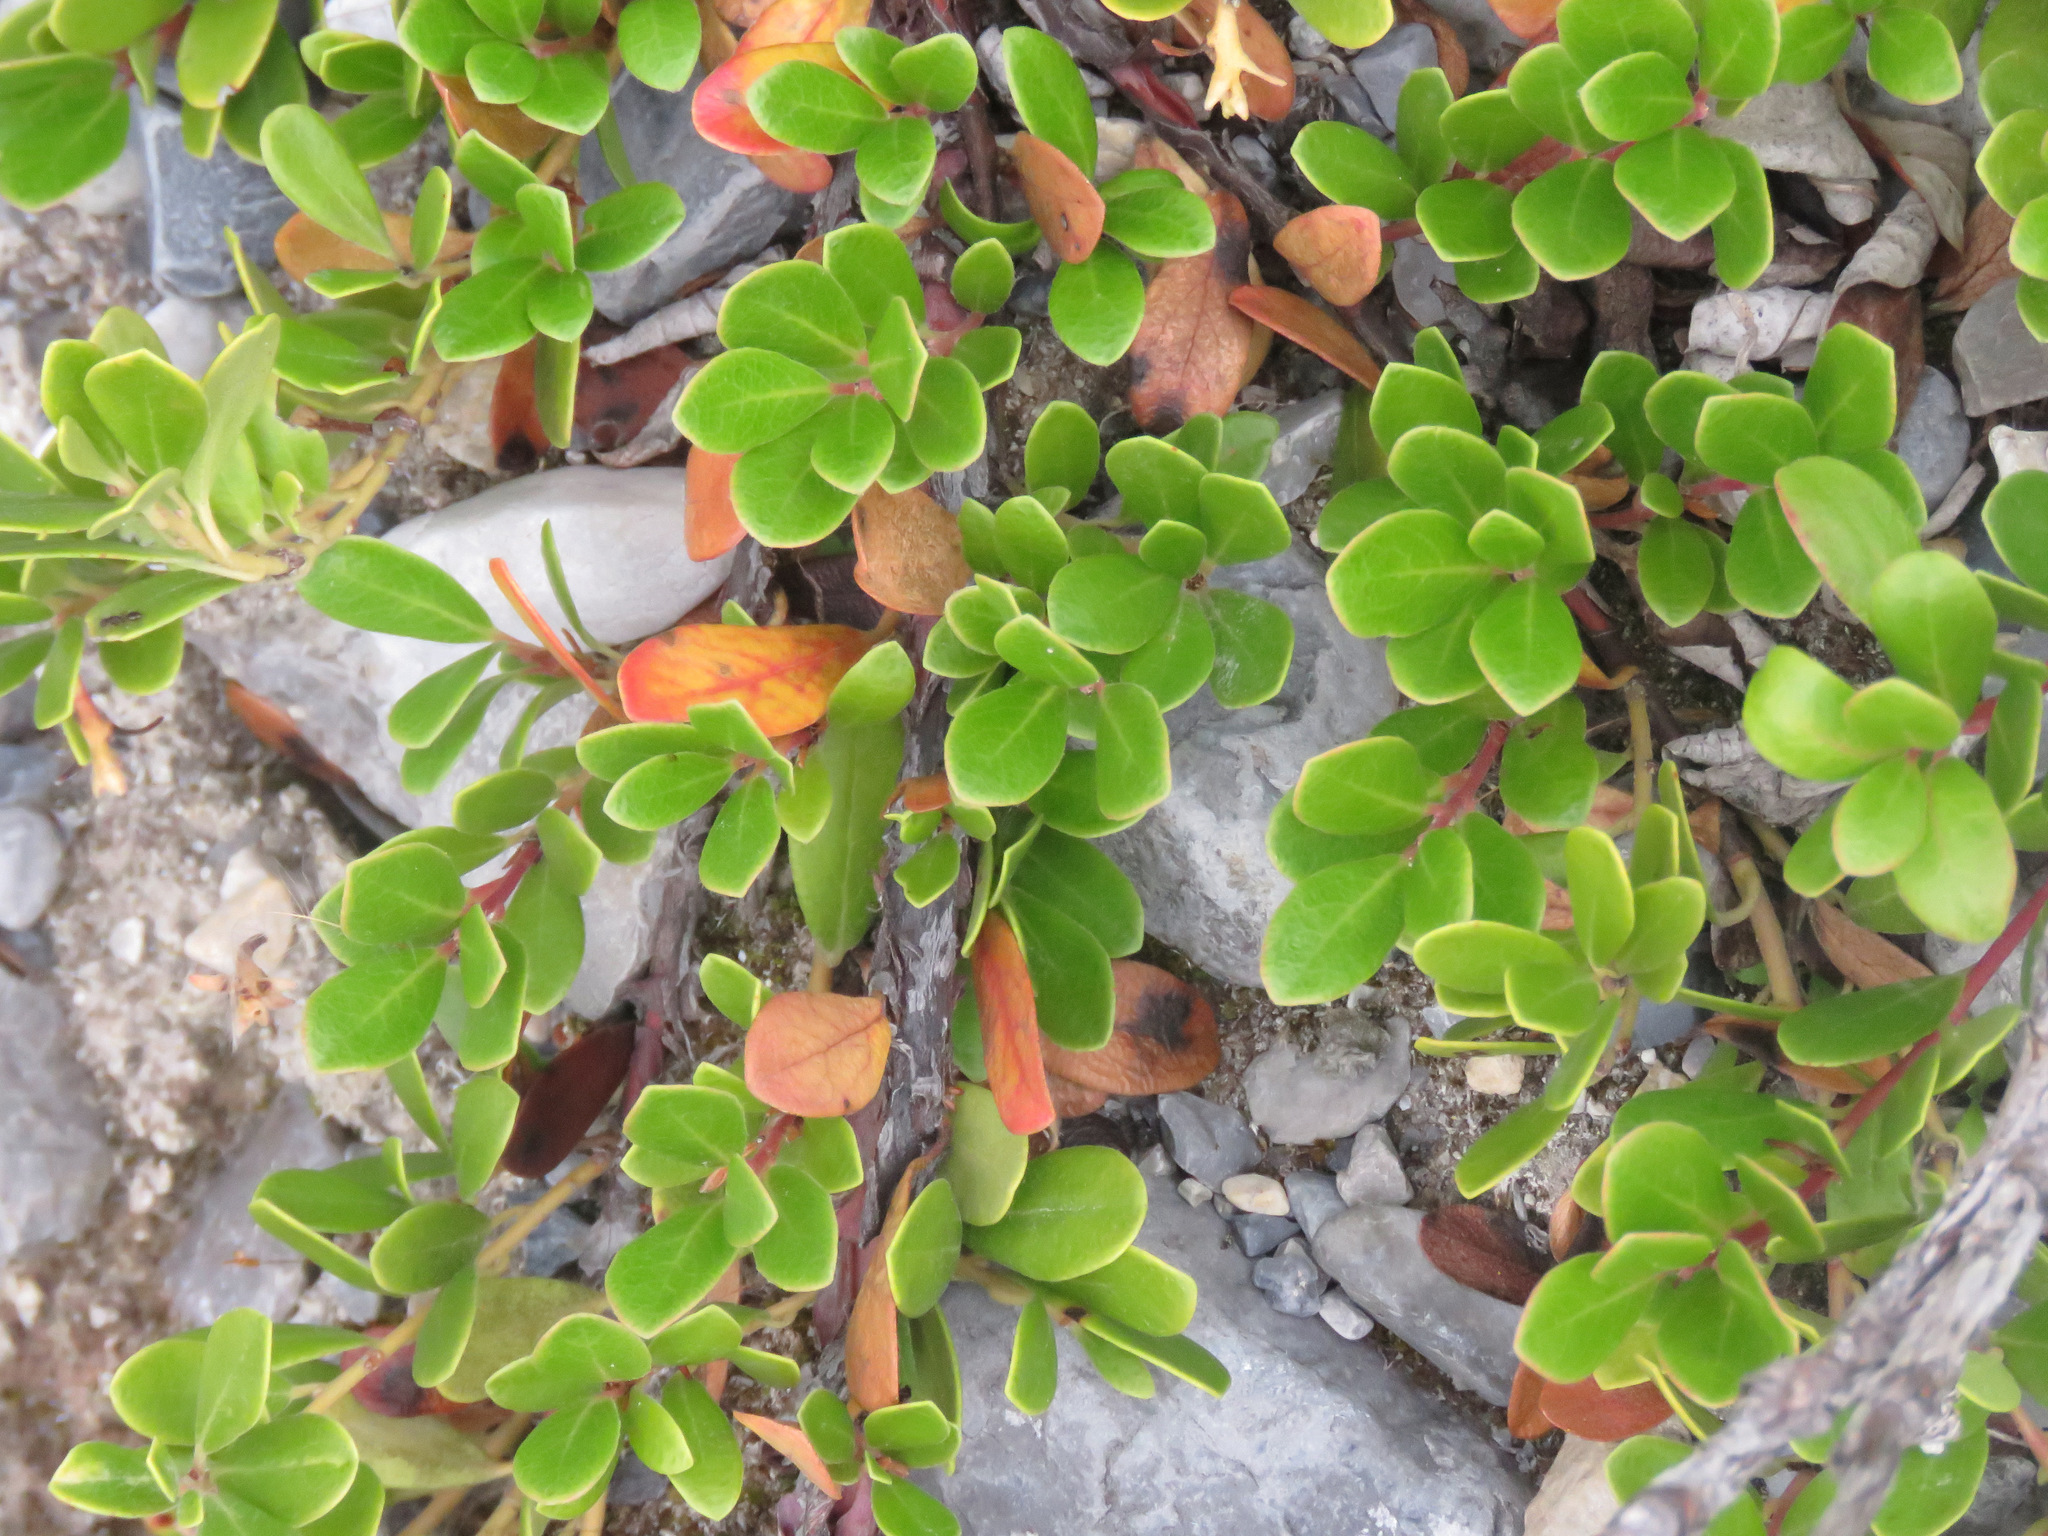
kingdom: Plantae
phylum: Tracheophyta
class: Magnoliopsida
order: Ericales
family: Ericaceae
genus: Arctostaphylos
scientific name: Arctostaphylos uva-ursi
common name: Bearberry
